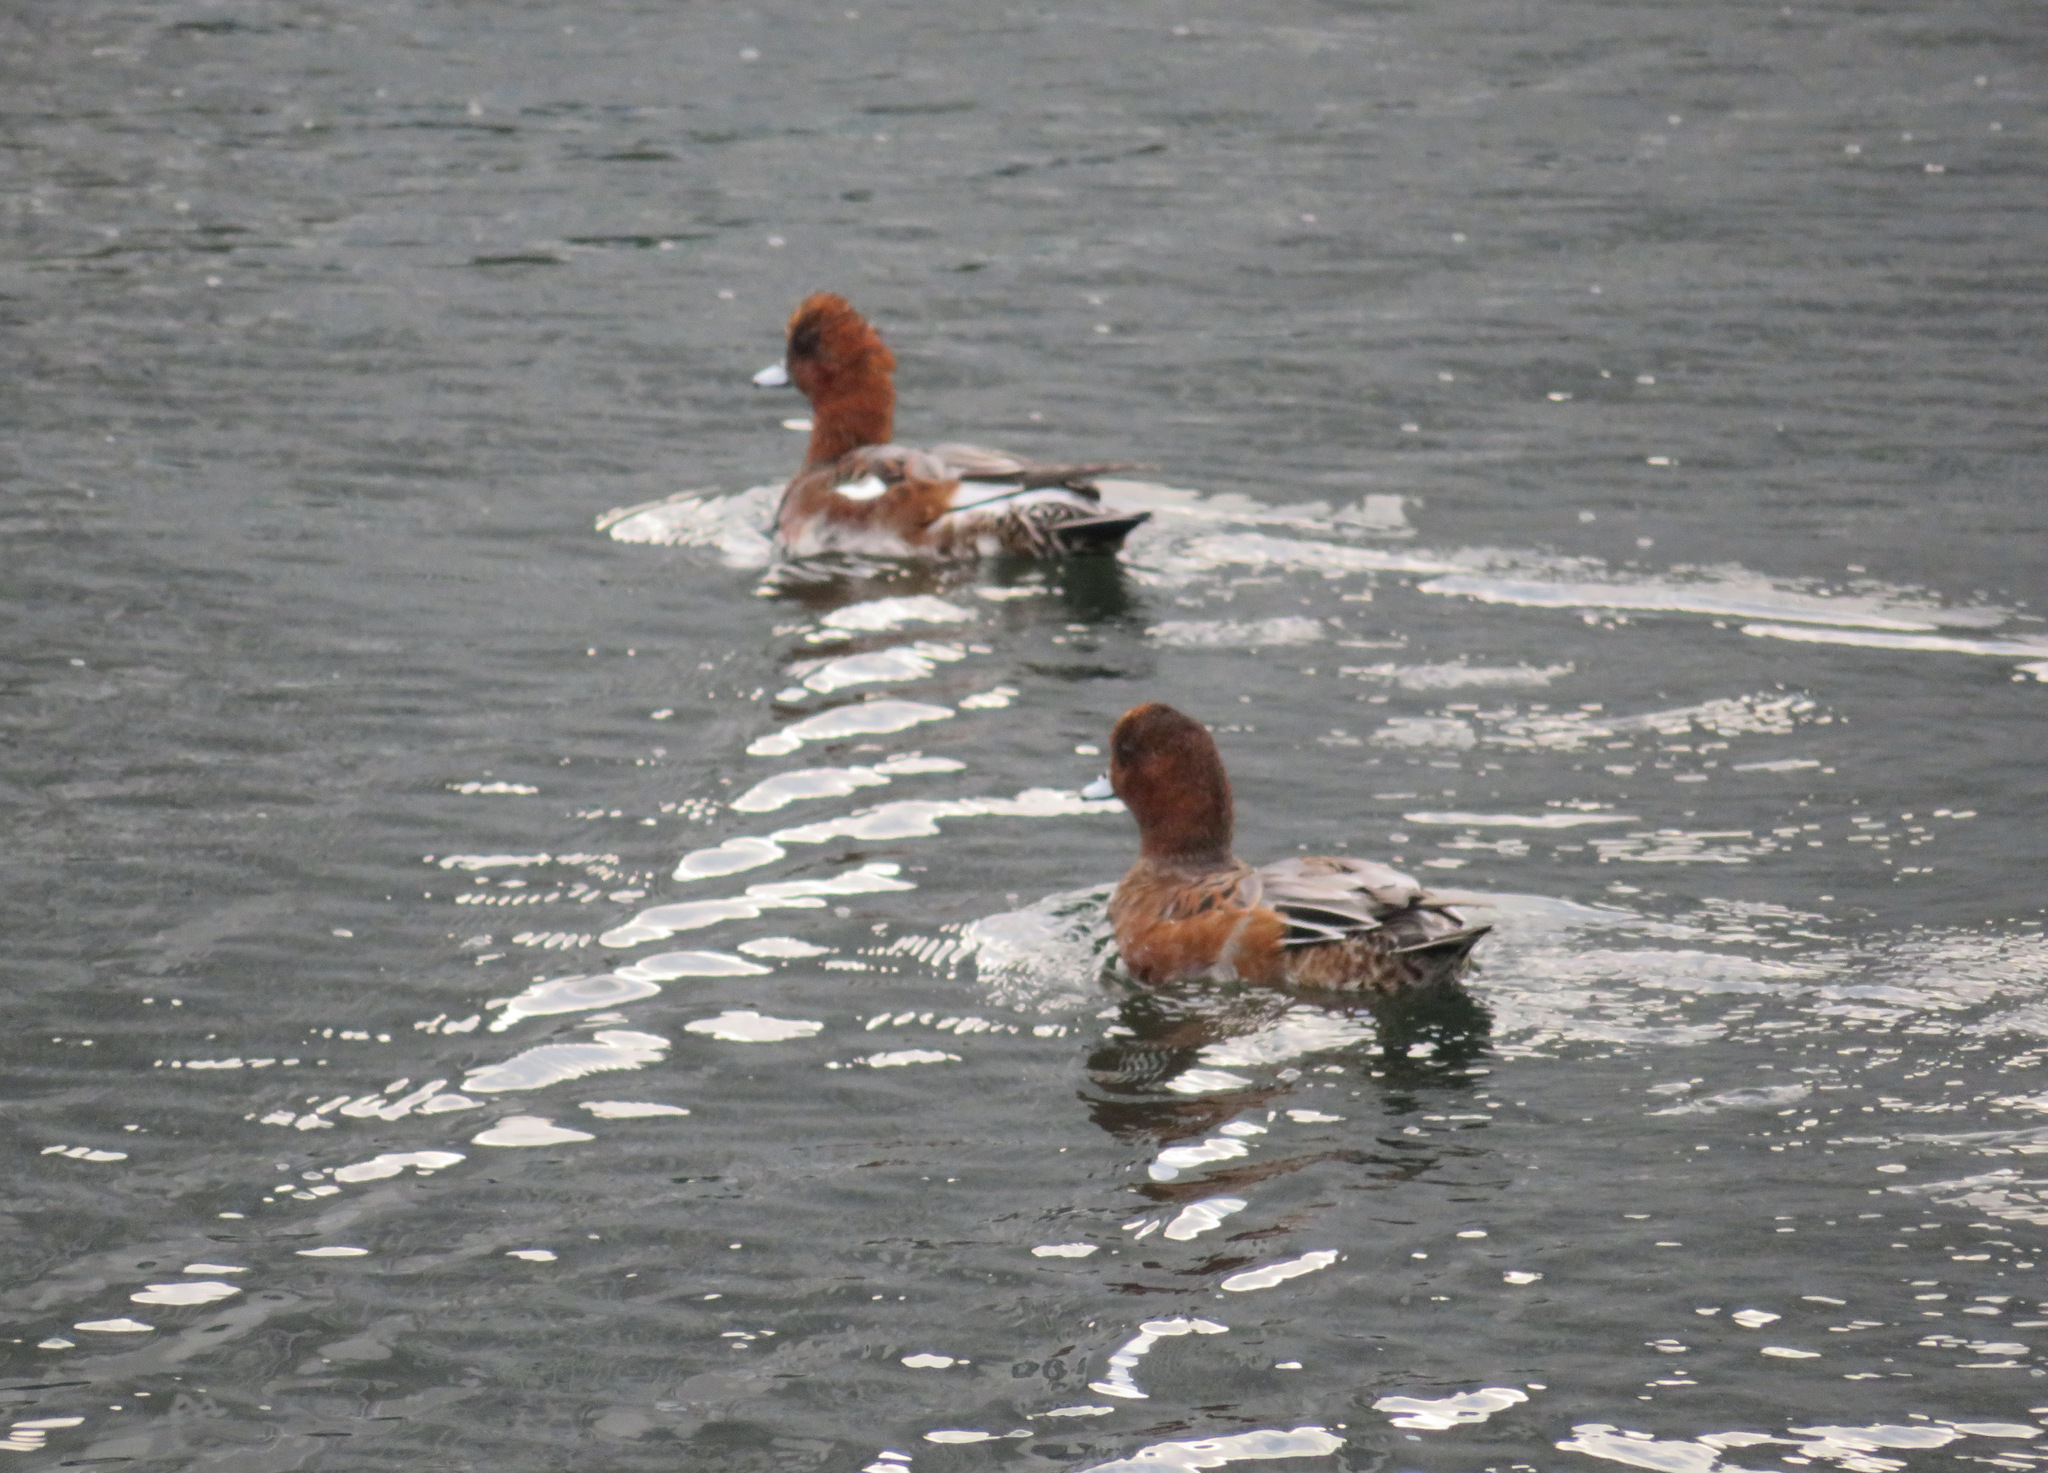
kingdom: Animalia
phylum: Chordata
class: Aves
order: Anseriformes
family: Anatidae
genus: Mareca
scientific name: Mareca penelope
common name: Eurasian wigeon
